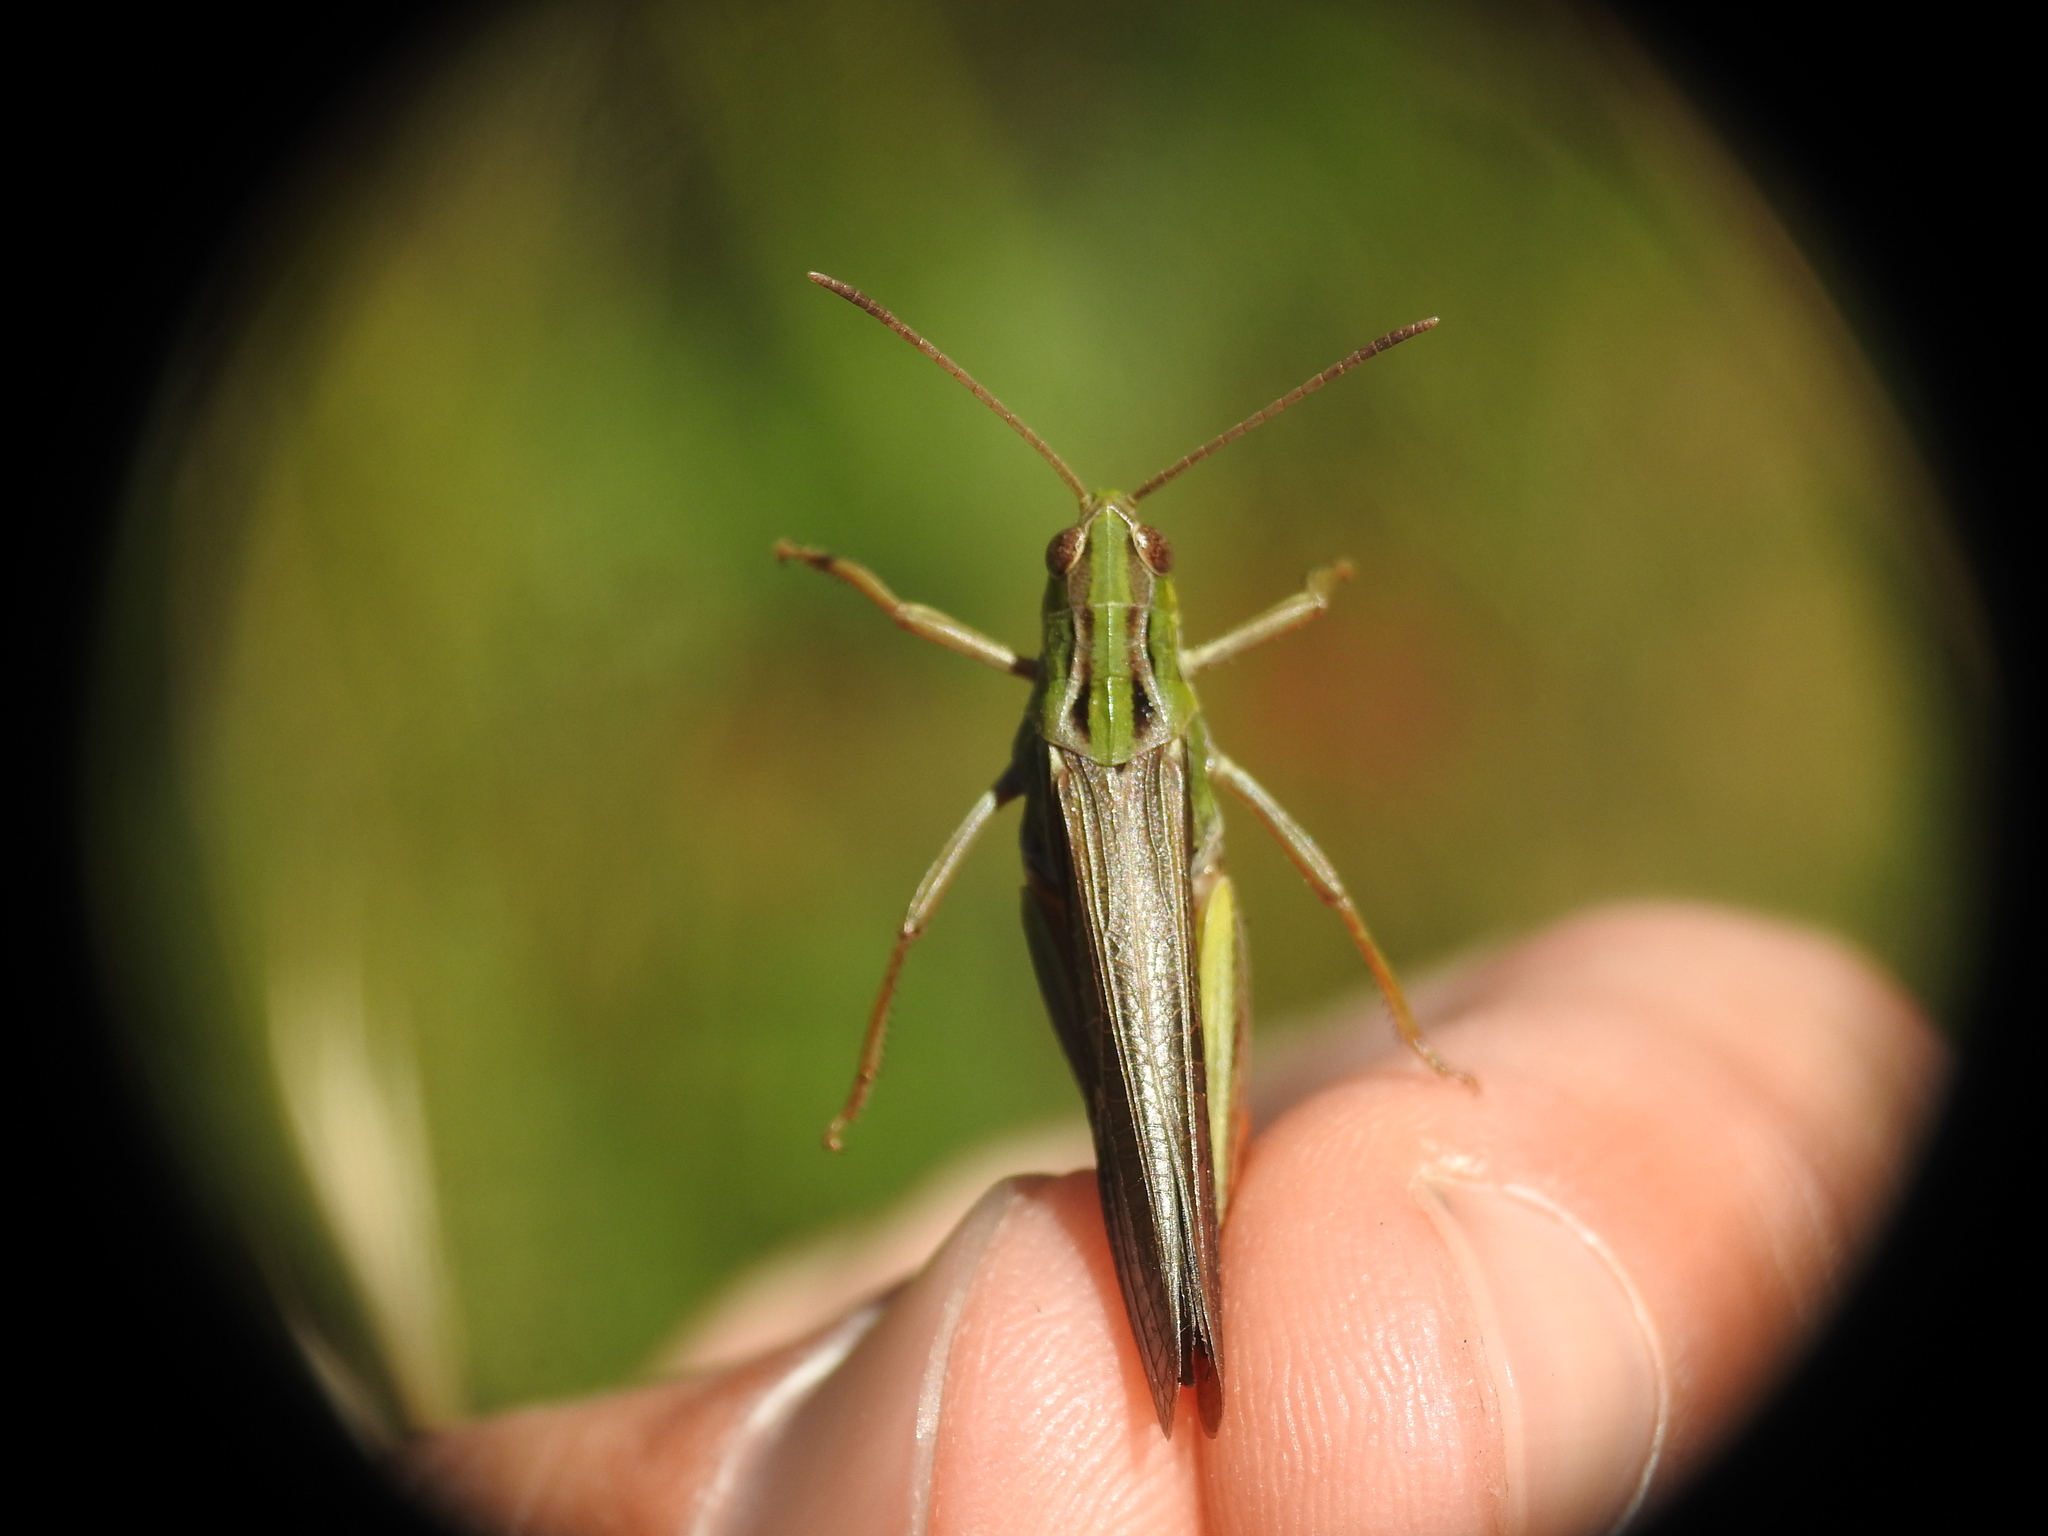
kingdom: Animalia
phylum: Arthropoda
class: Insecta
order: Orthoptera
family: Acrididae
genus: Stenobothrus
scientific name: Stenobothrus rubicundulus
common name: Wing-buzzing grasshopper
